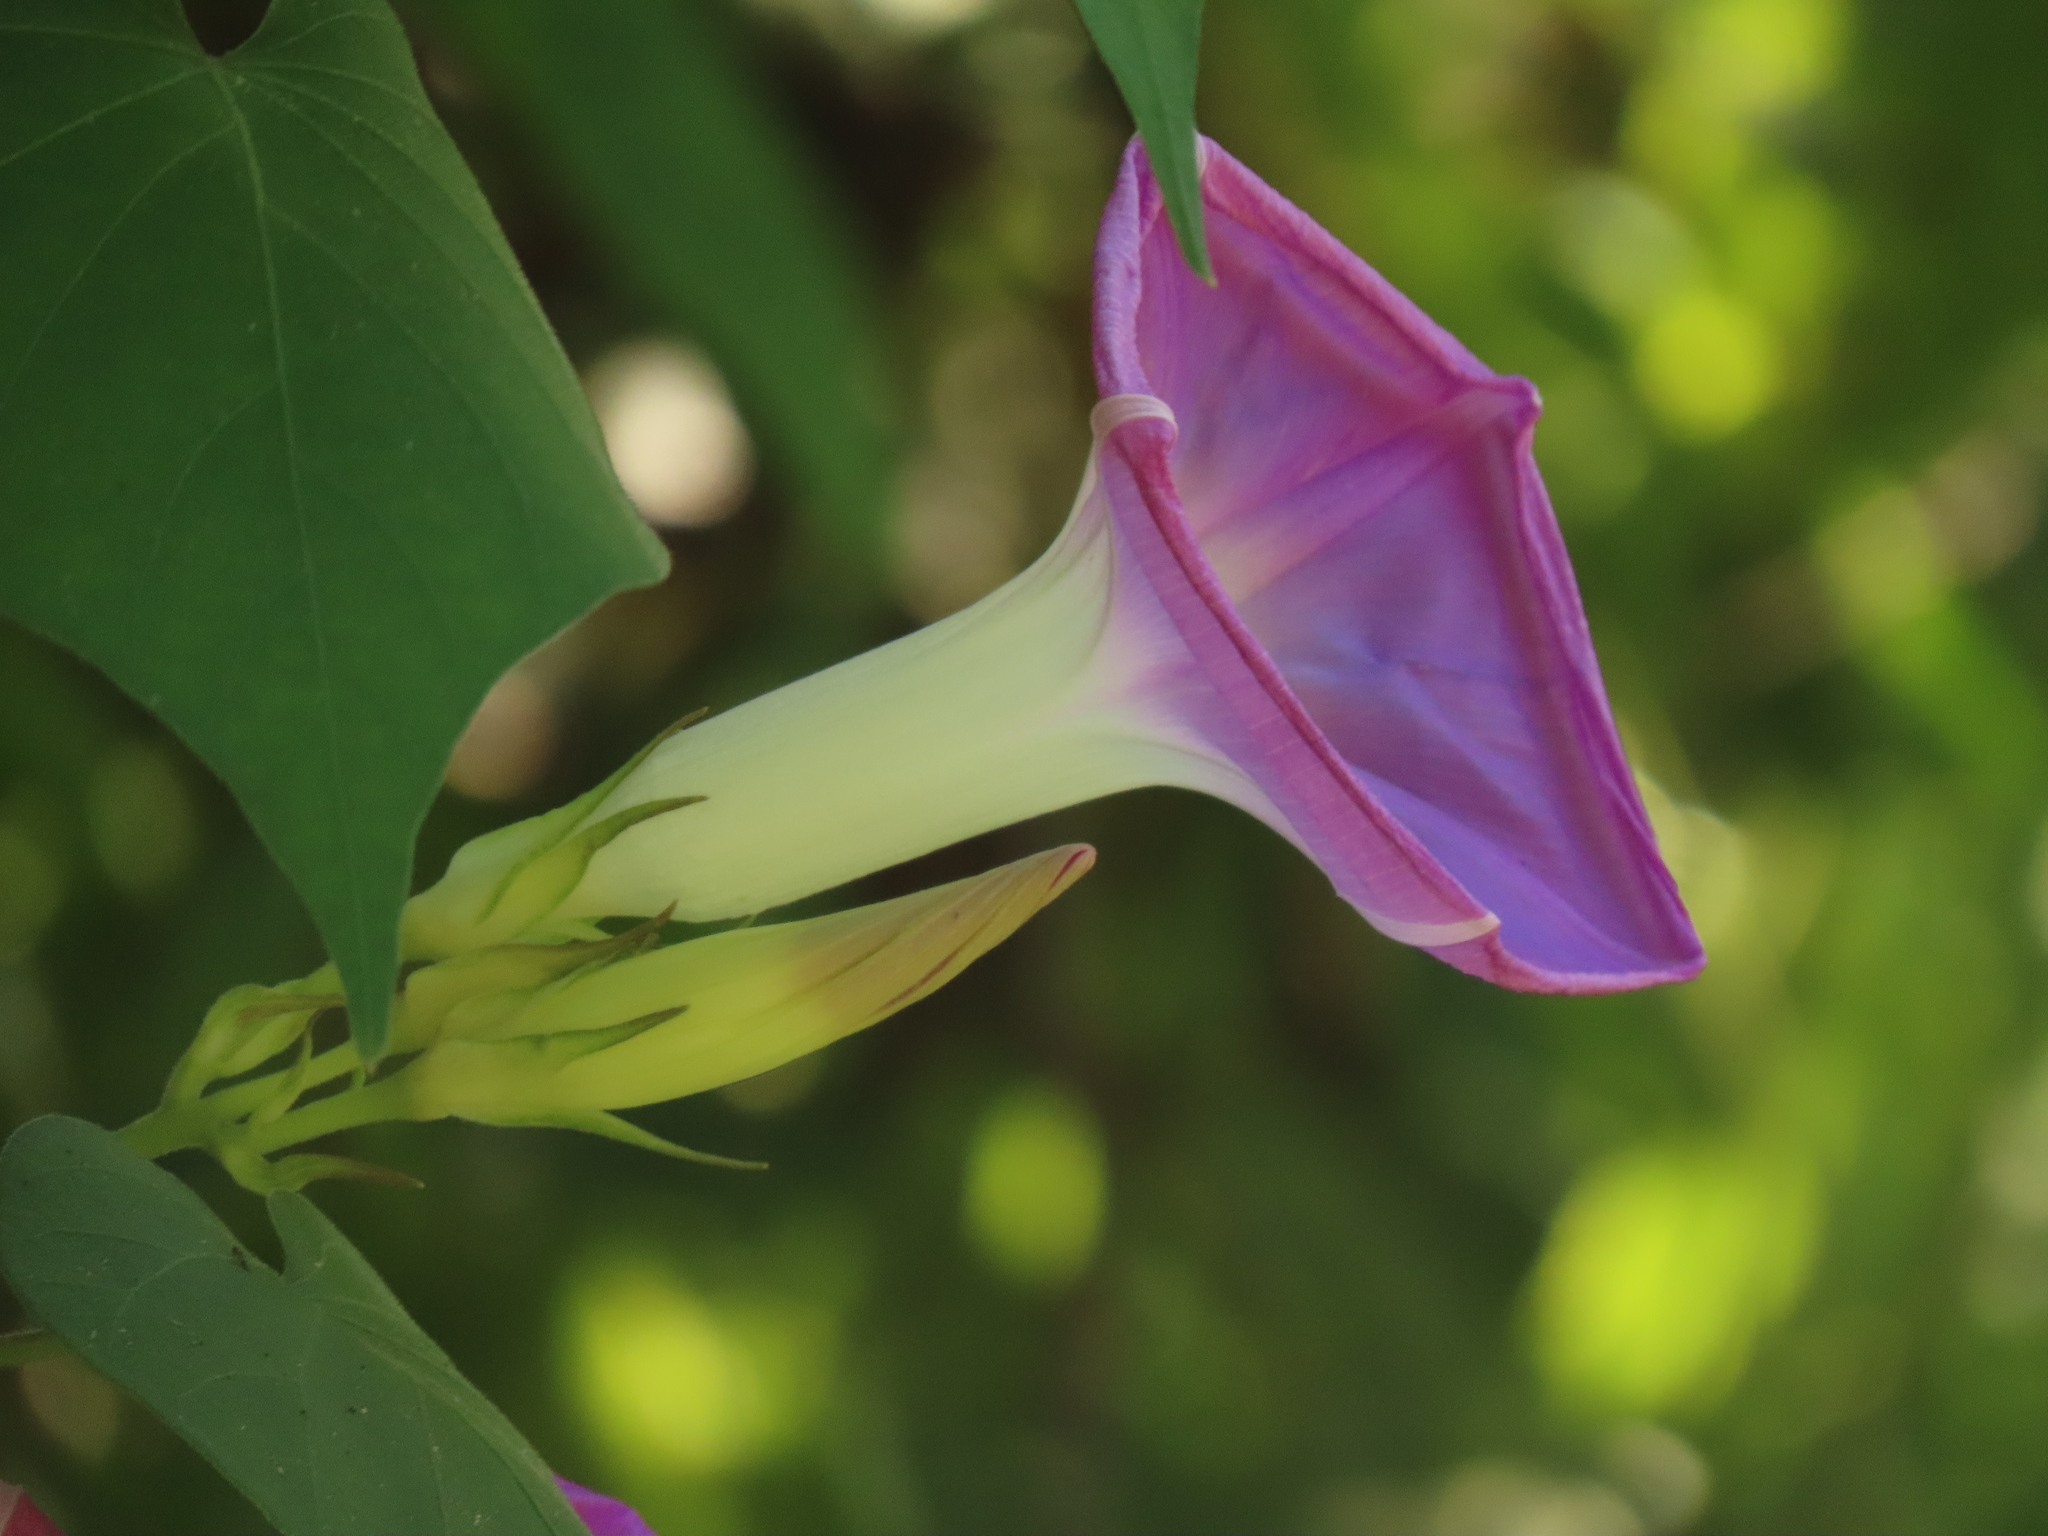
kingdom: Plantae
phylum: Tracheophyta
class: Magnoliopsida
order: Solanales
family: Convolvulaceae
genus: Ipomoea
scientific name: Ipomoea indica
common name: Blue dawnflower
